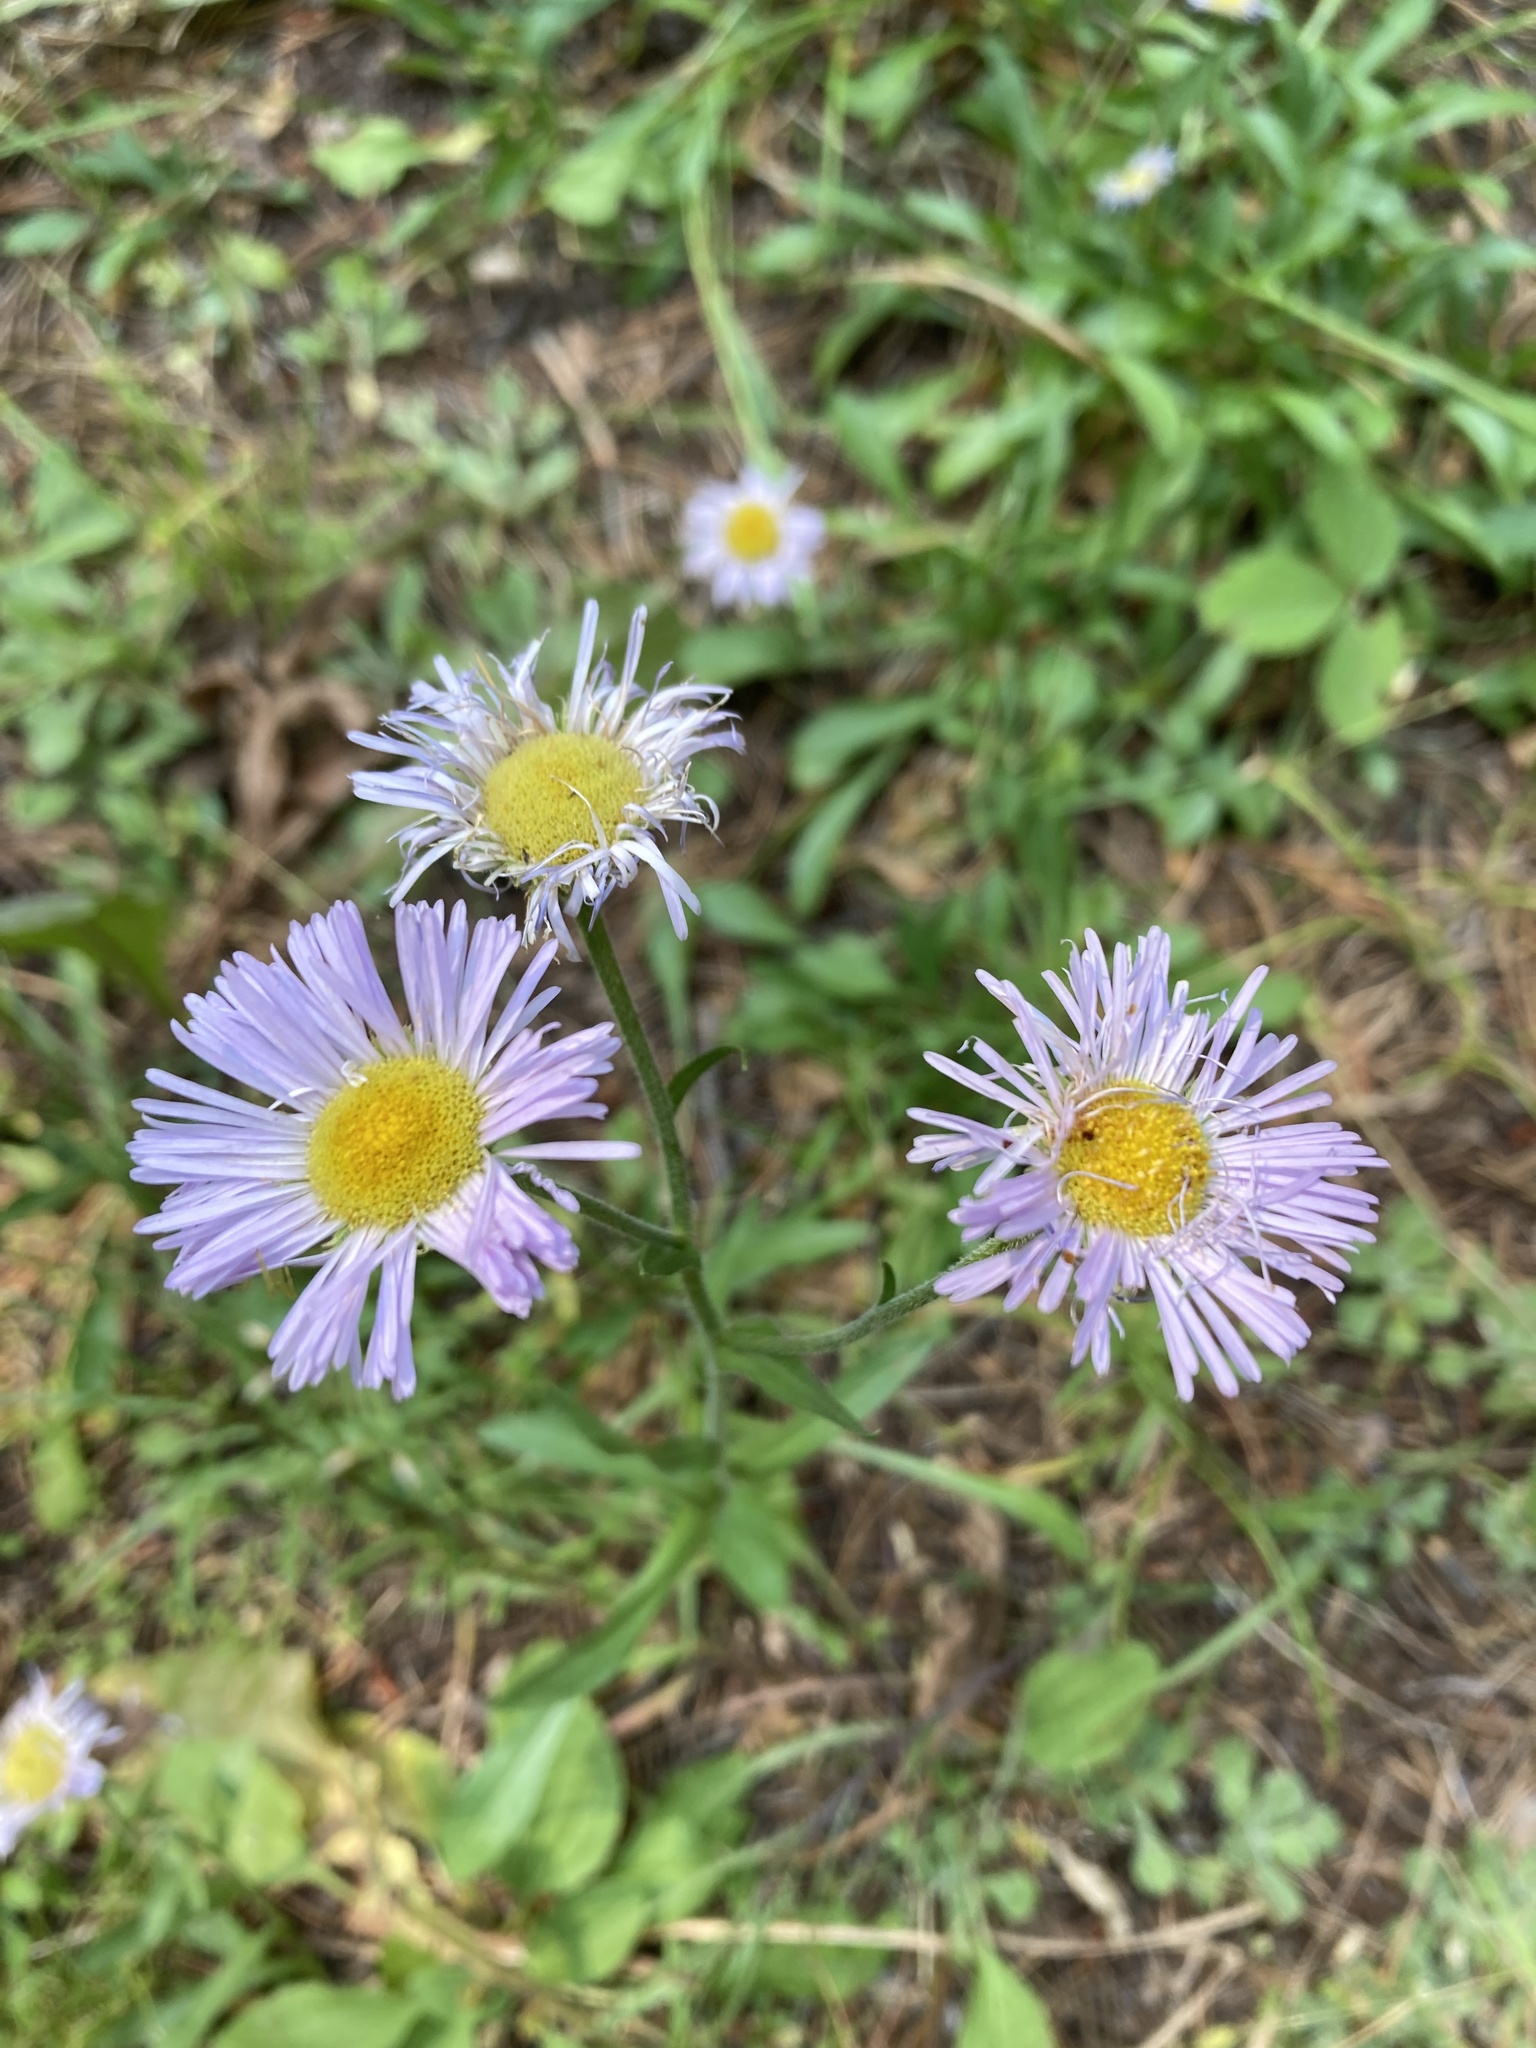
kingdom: Plantae
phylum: Tracheophyta
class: Magnoliopsida
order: Asterales
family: Asteraceae
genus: Erigeron
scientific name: Erigeron glabellus
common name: Smooth fleabane
